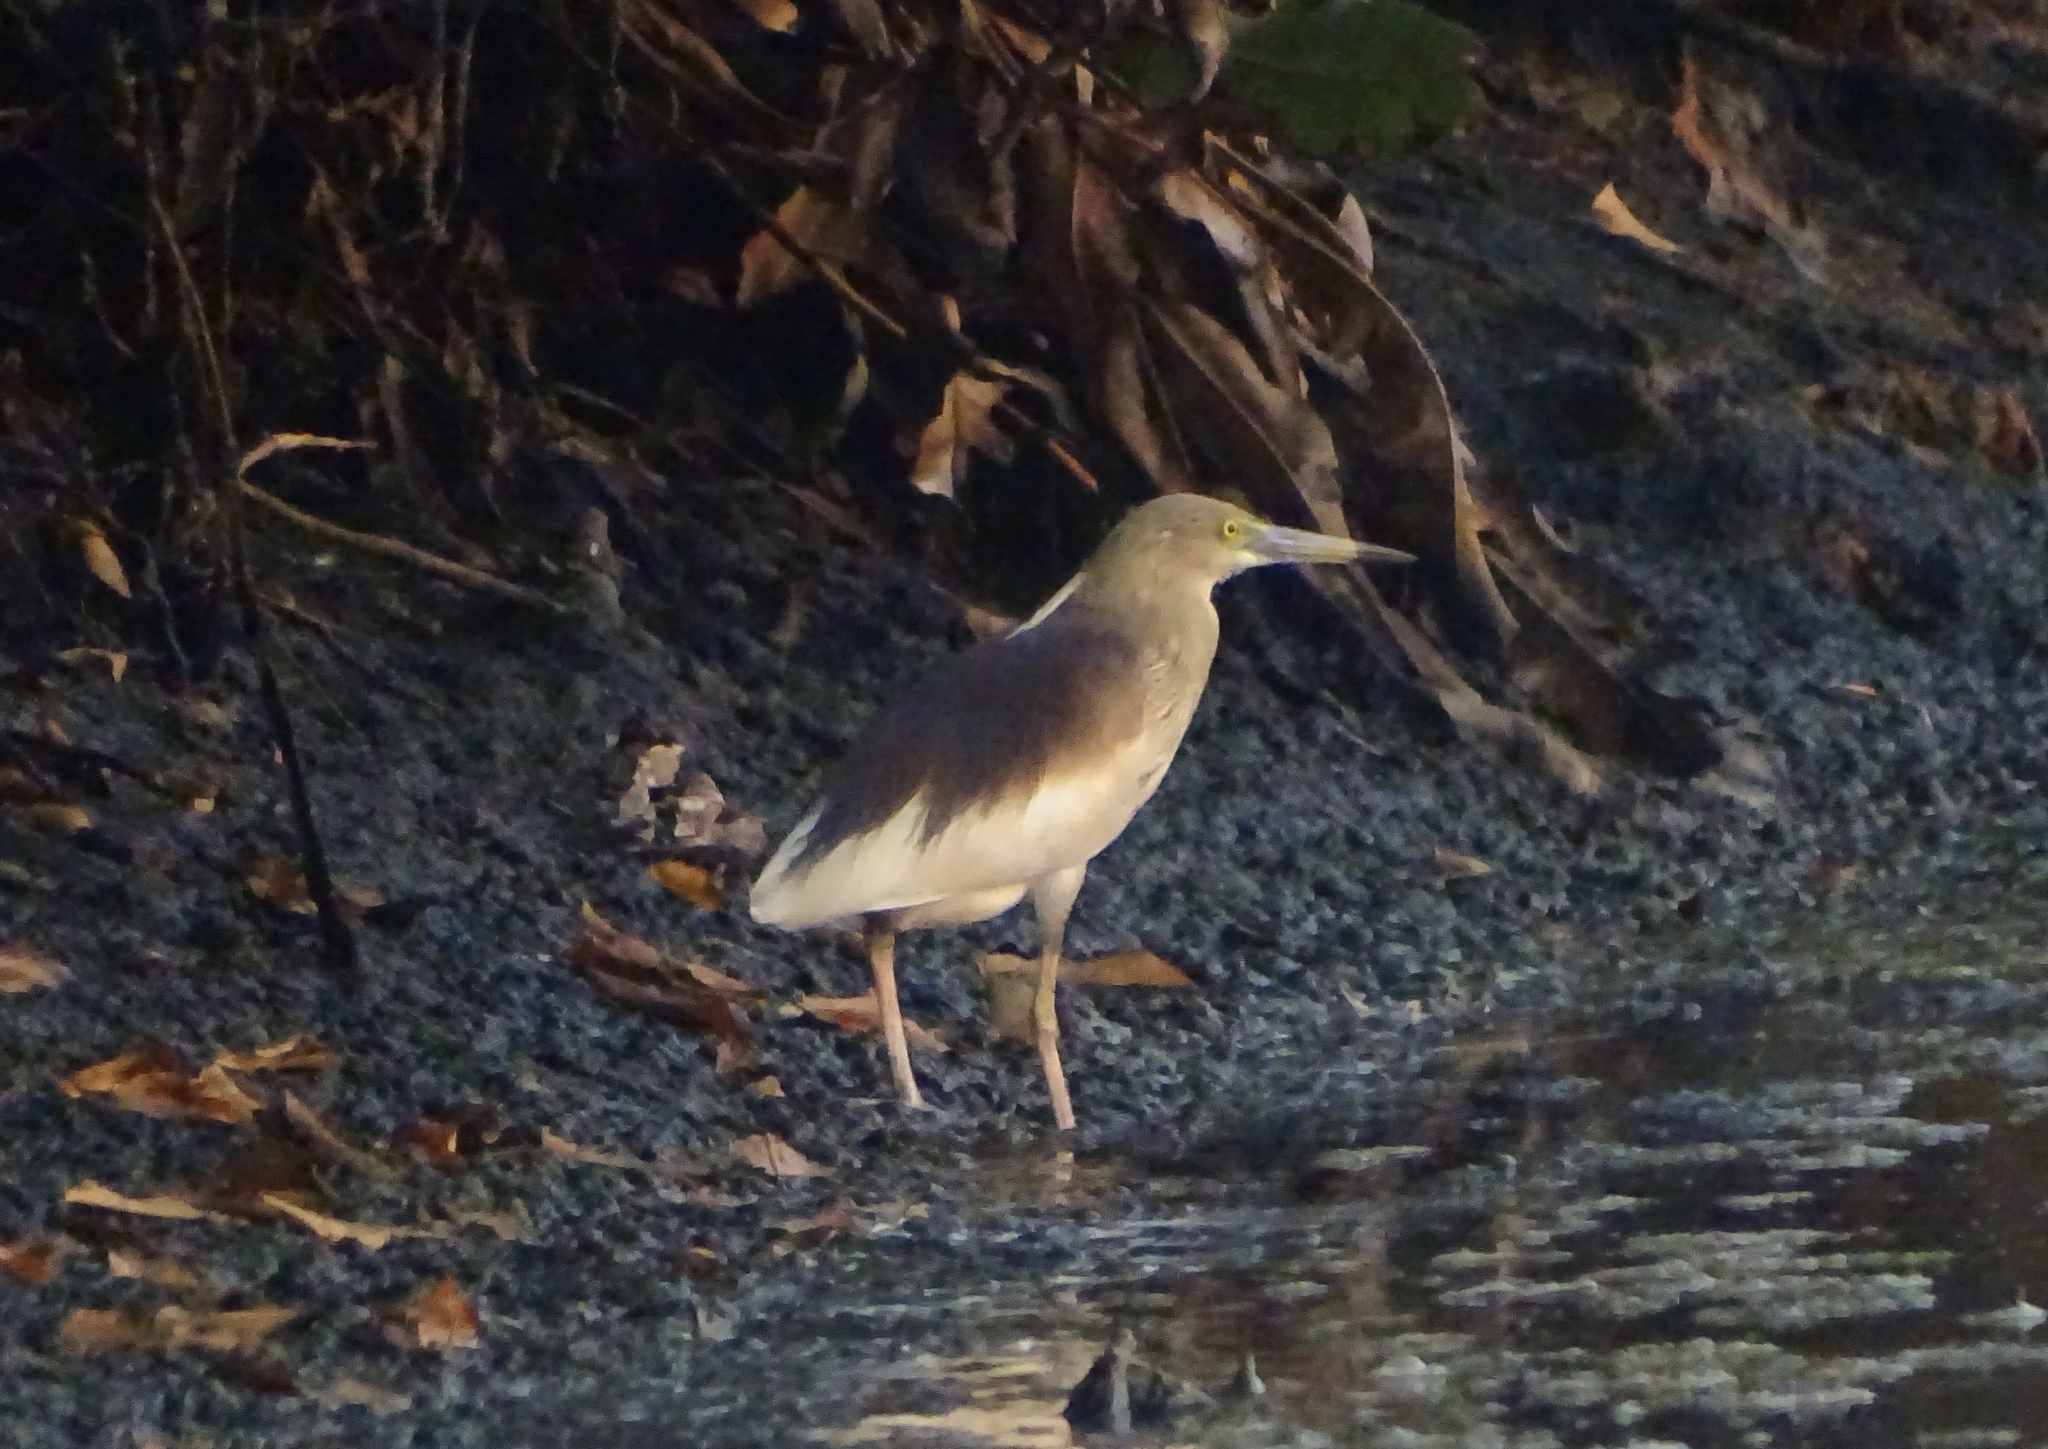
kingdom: Animalia
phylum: Chordata
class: Aves
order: Pelecaniformes
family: Ardeidae
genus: Ardeola
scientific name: Ardeola grayii
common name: Indian pond heron
